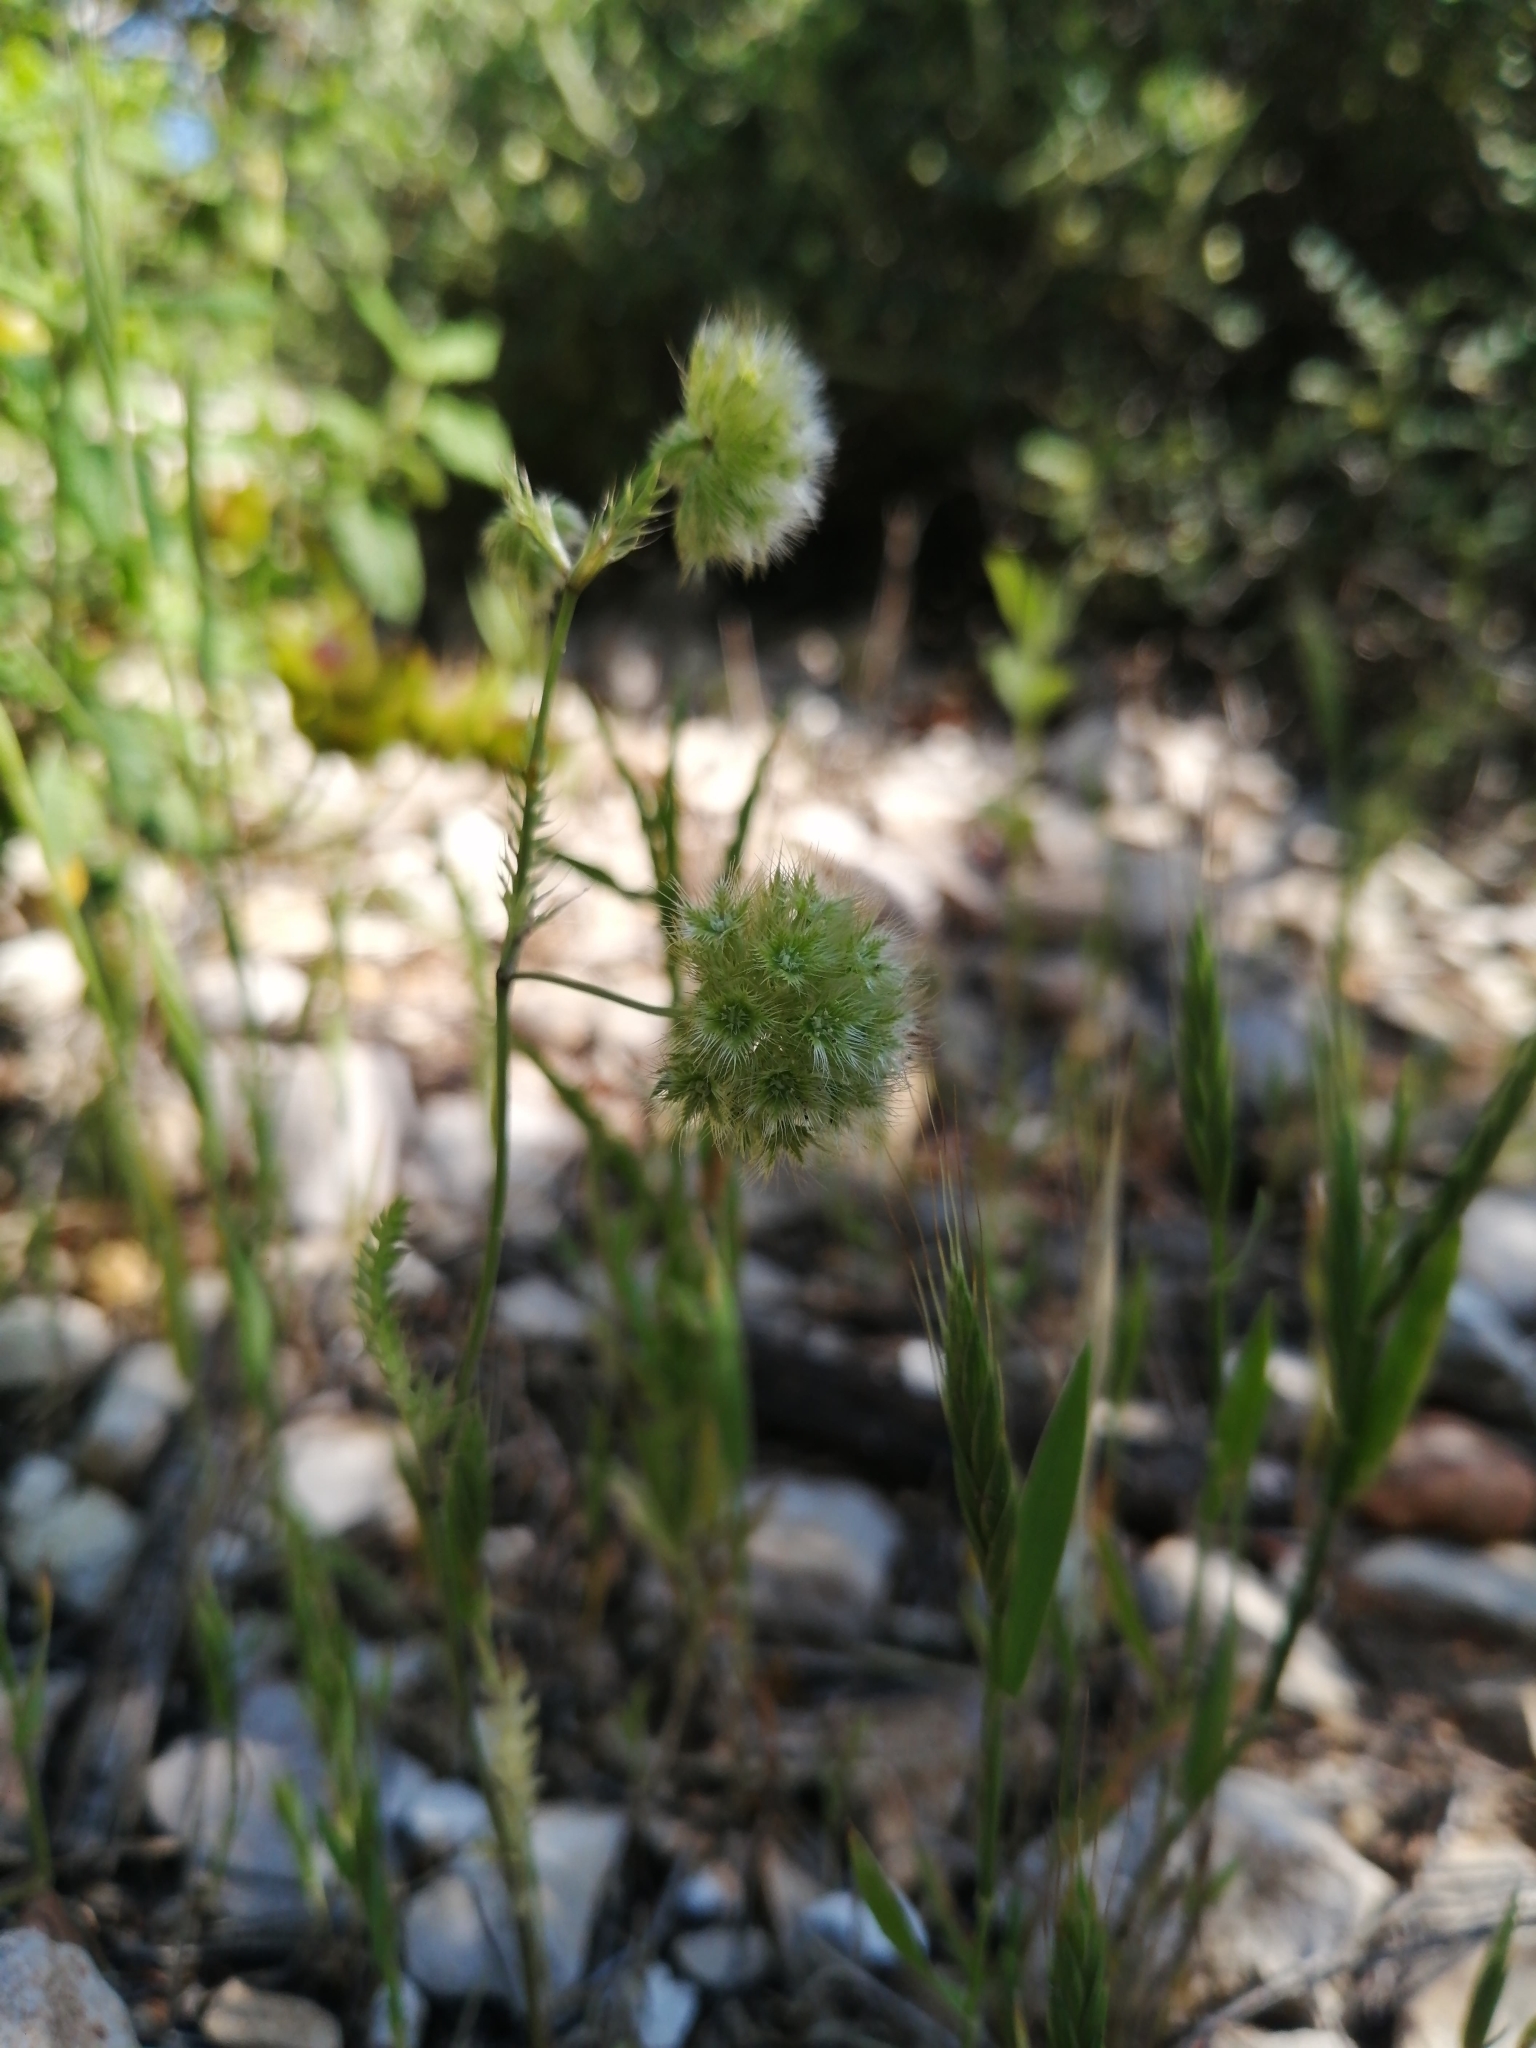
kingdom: Plantae
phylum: Tracheophyta
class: Magnoliopsida
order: Apiales
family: Apiaceae
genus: Lagoecia
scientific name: Lagoecia cuminoides
